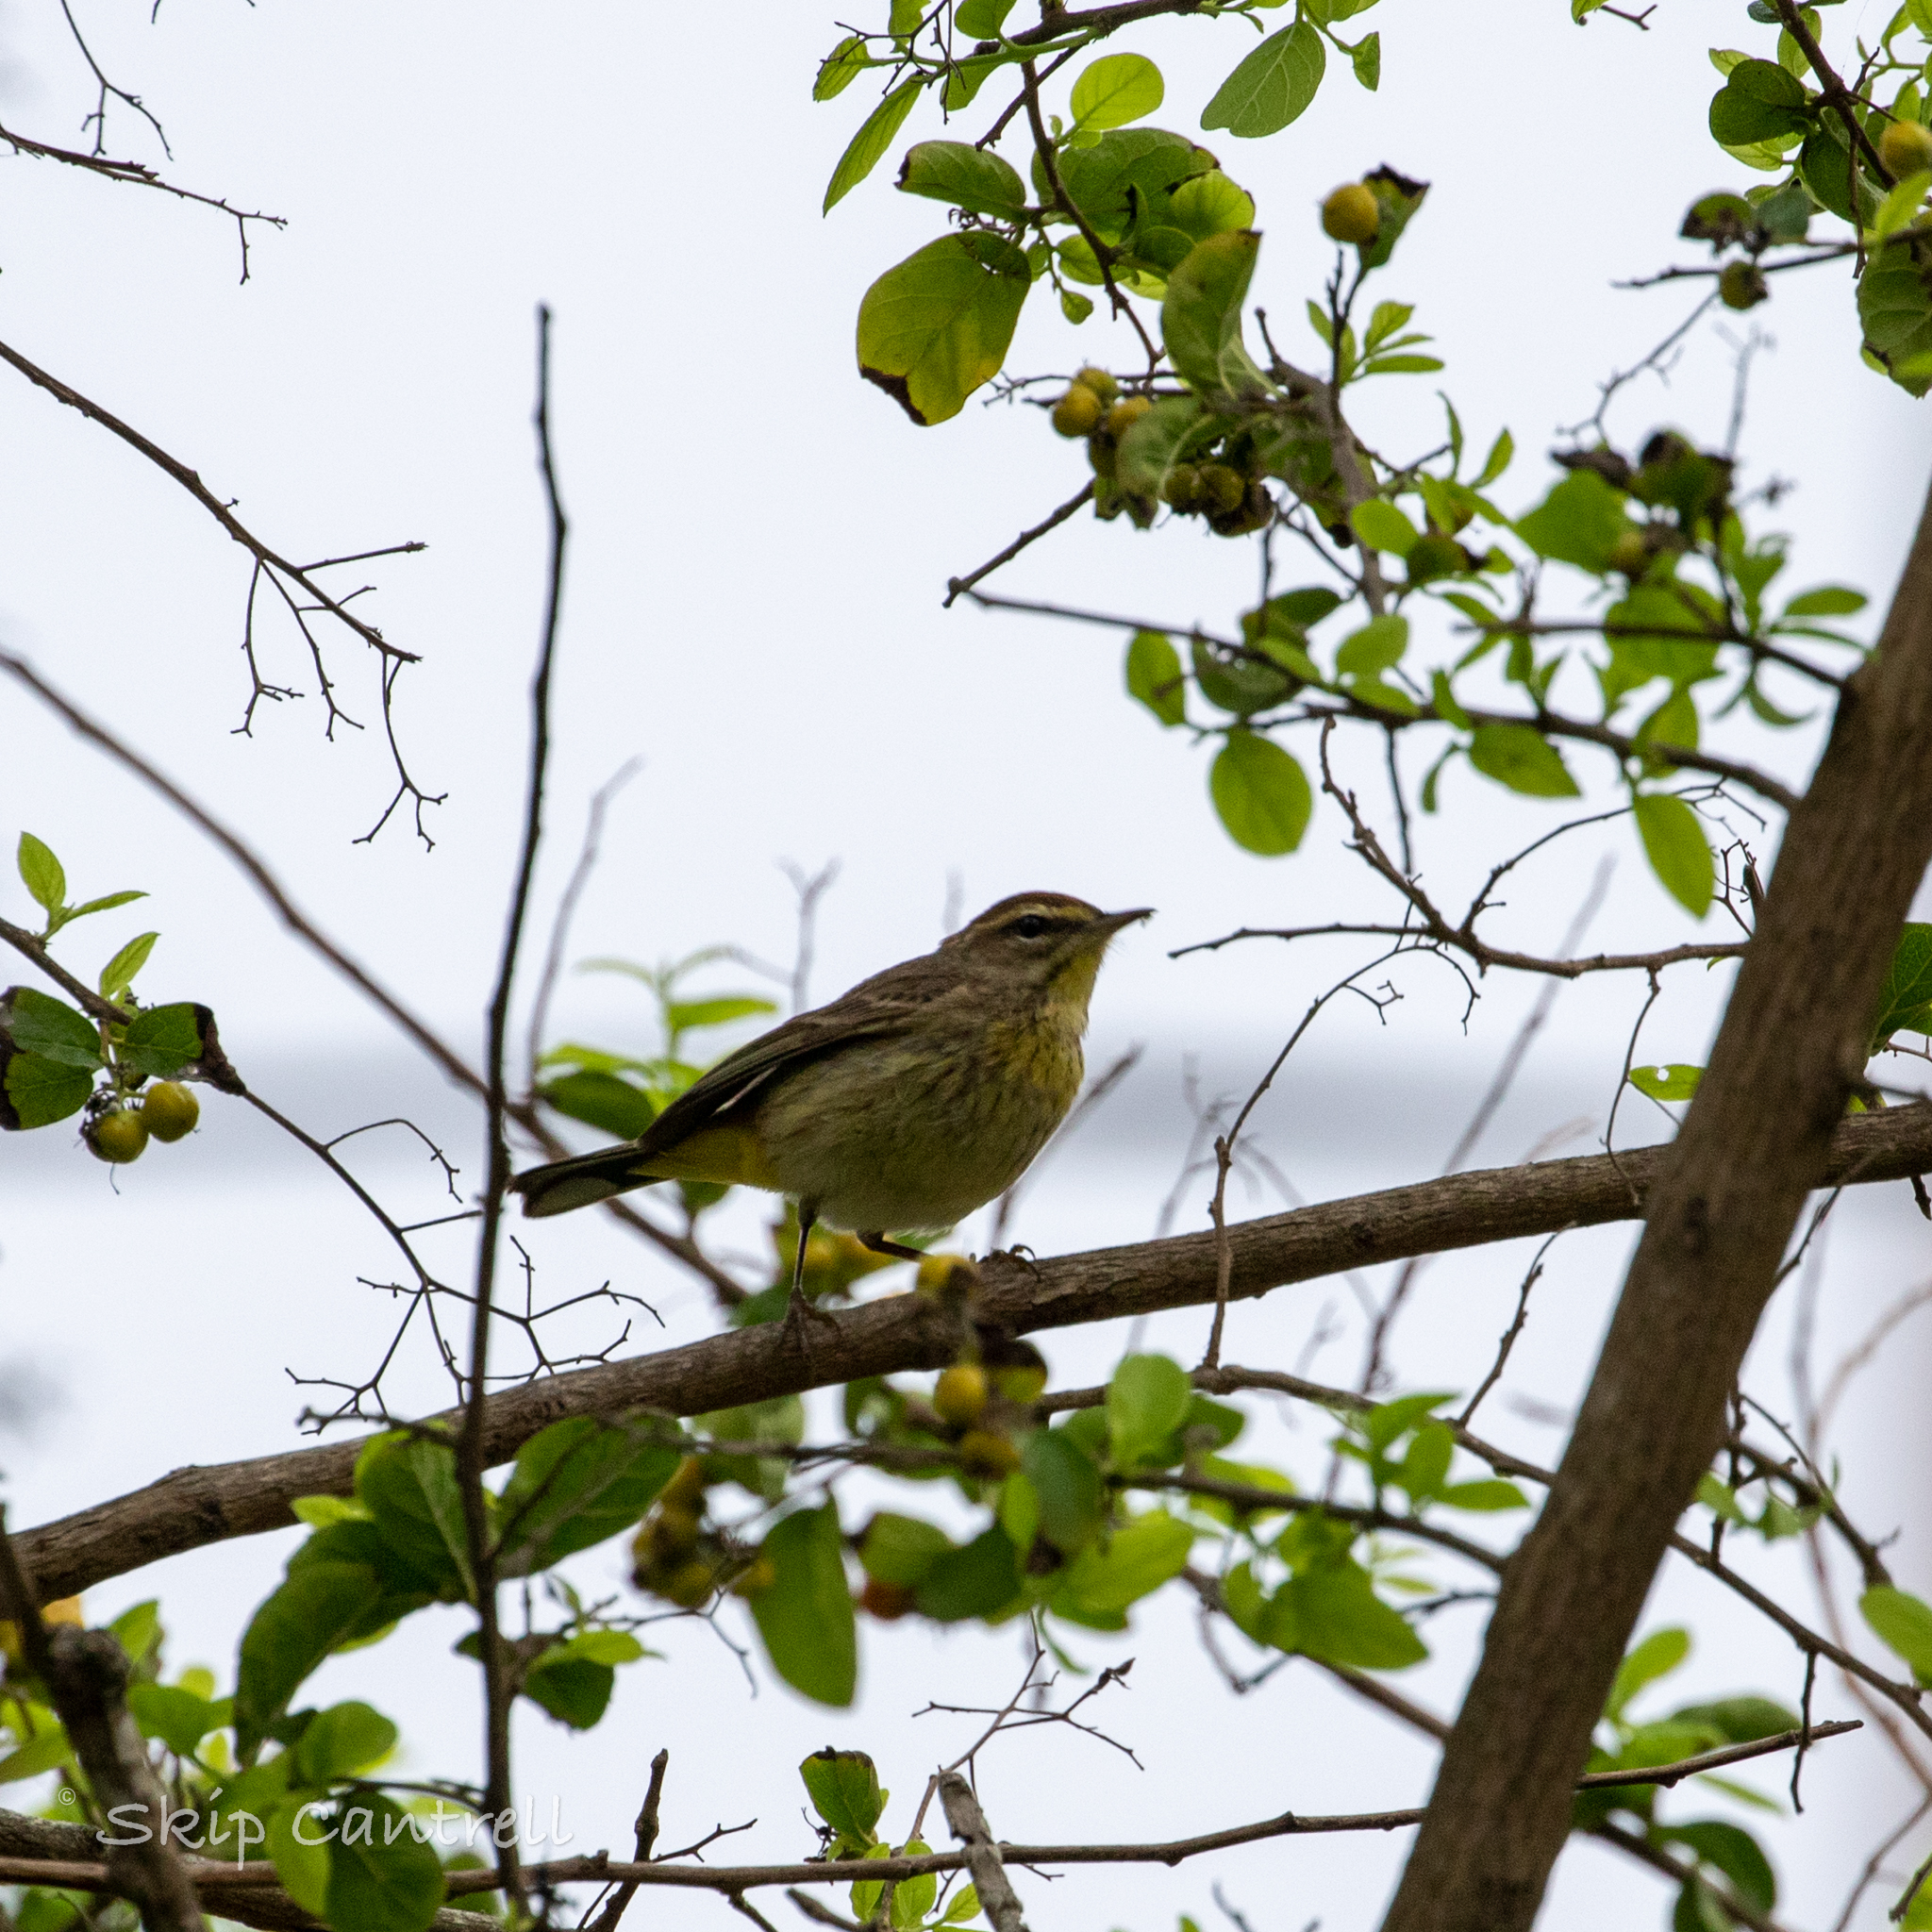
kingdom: Animalia
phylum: Chordata
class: Aves
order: Passeriformes
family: Parulidae
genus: Setophaga
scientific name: Setophaga palmarum
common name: Palm warbler
